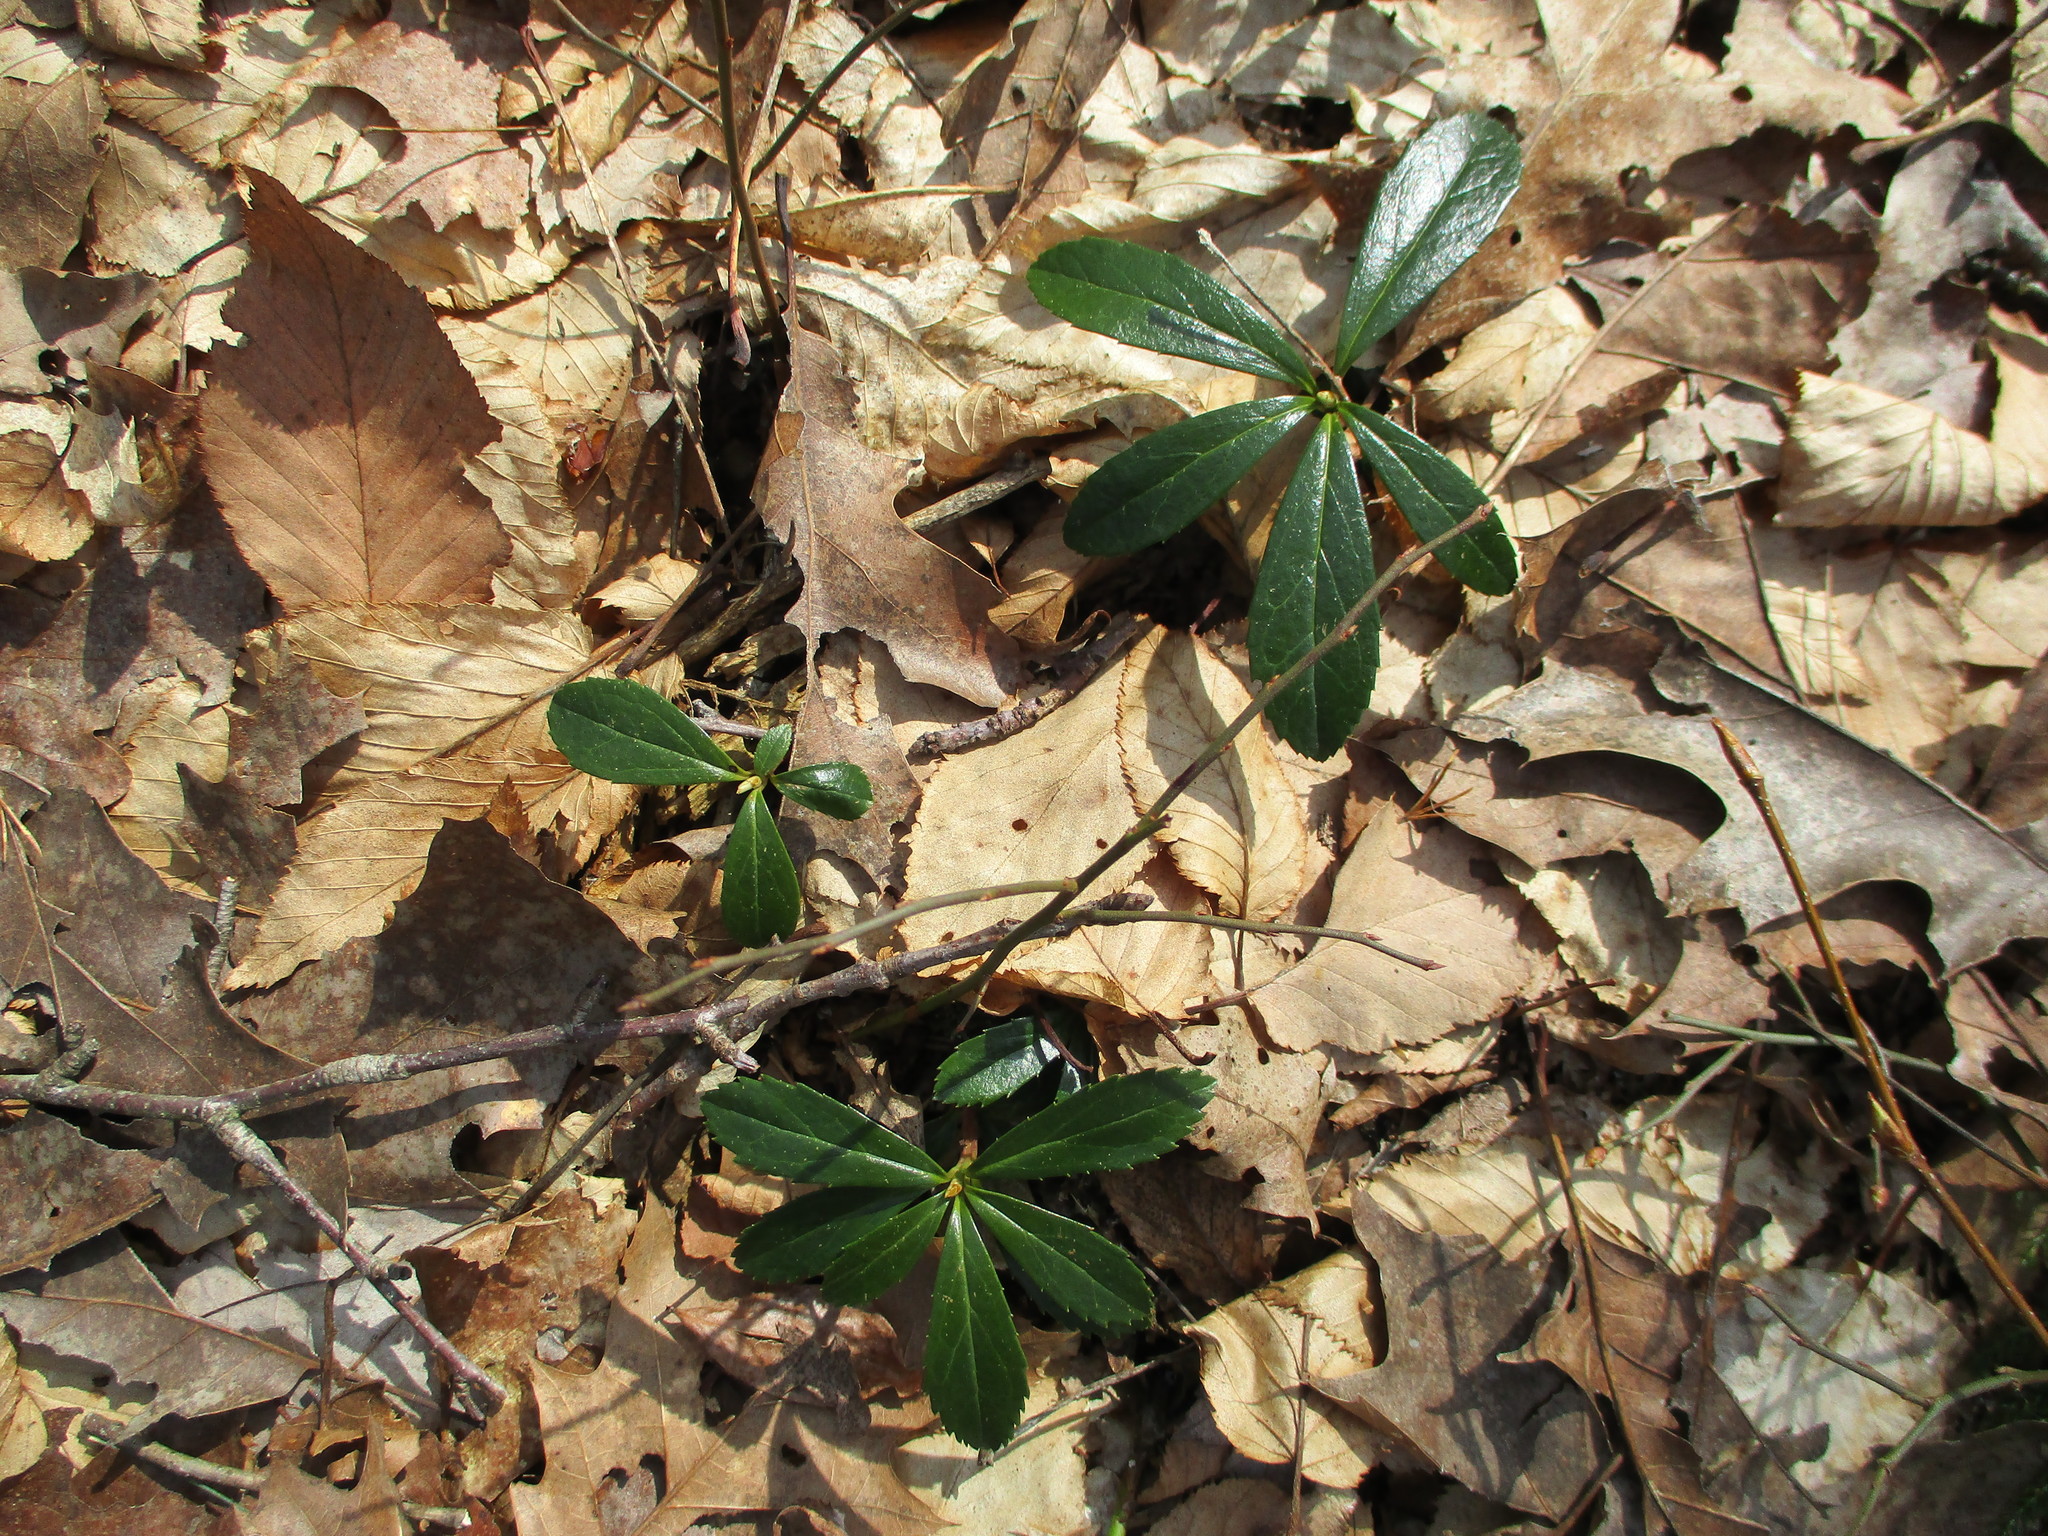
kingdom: Plantae
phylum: Tracheophyta
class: Magnoliopsida
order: Ericales
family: Ericaceae
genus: Chimaphila
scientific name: Chimaphila umbellata
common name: Pipsissewa
